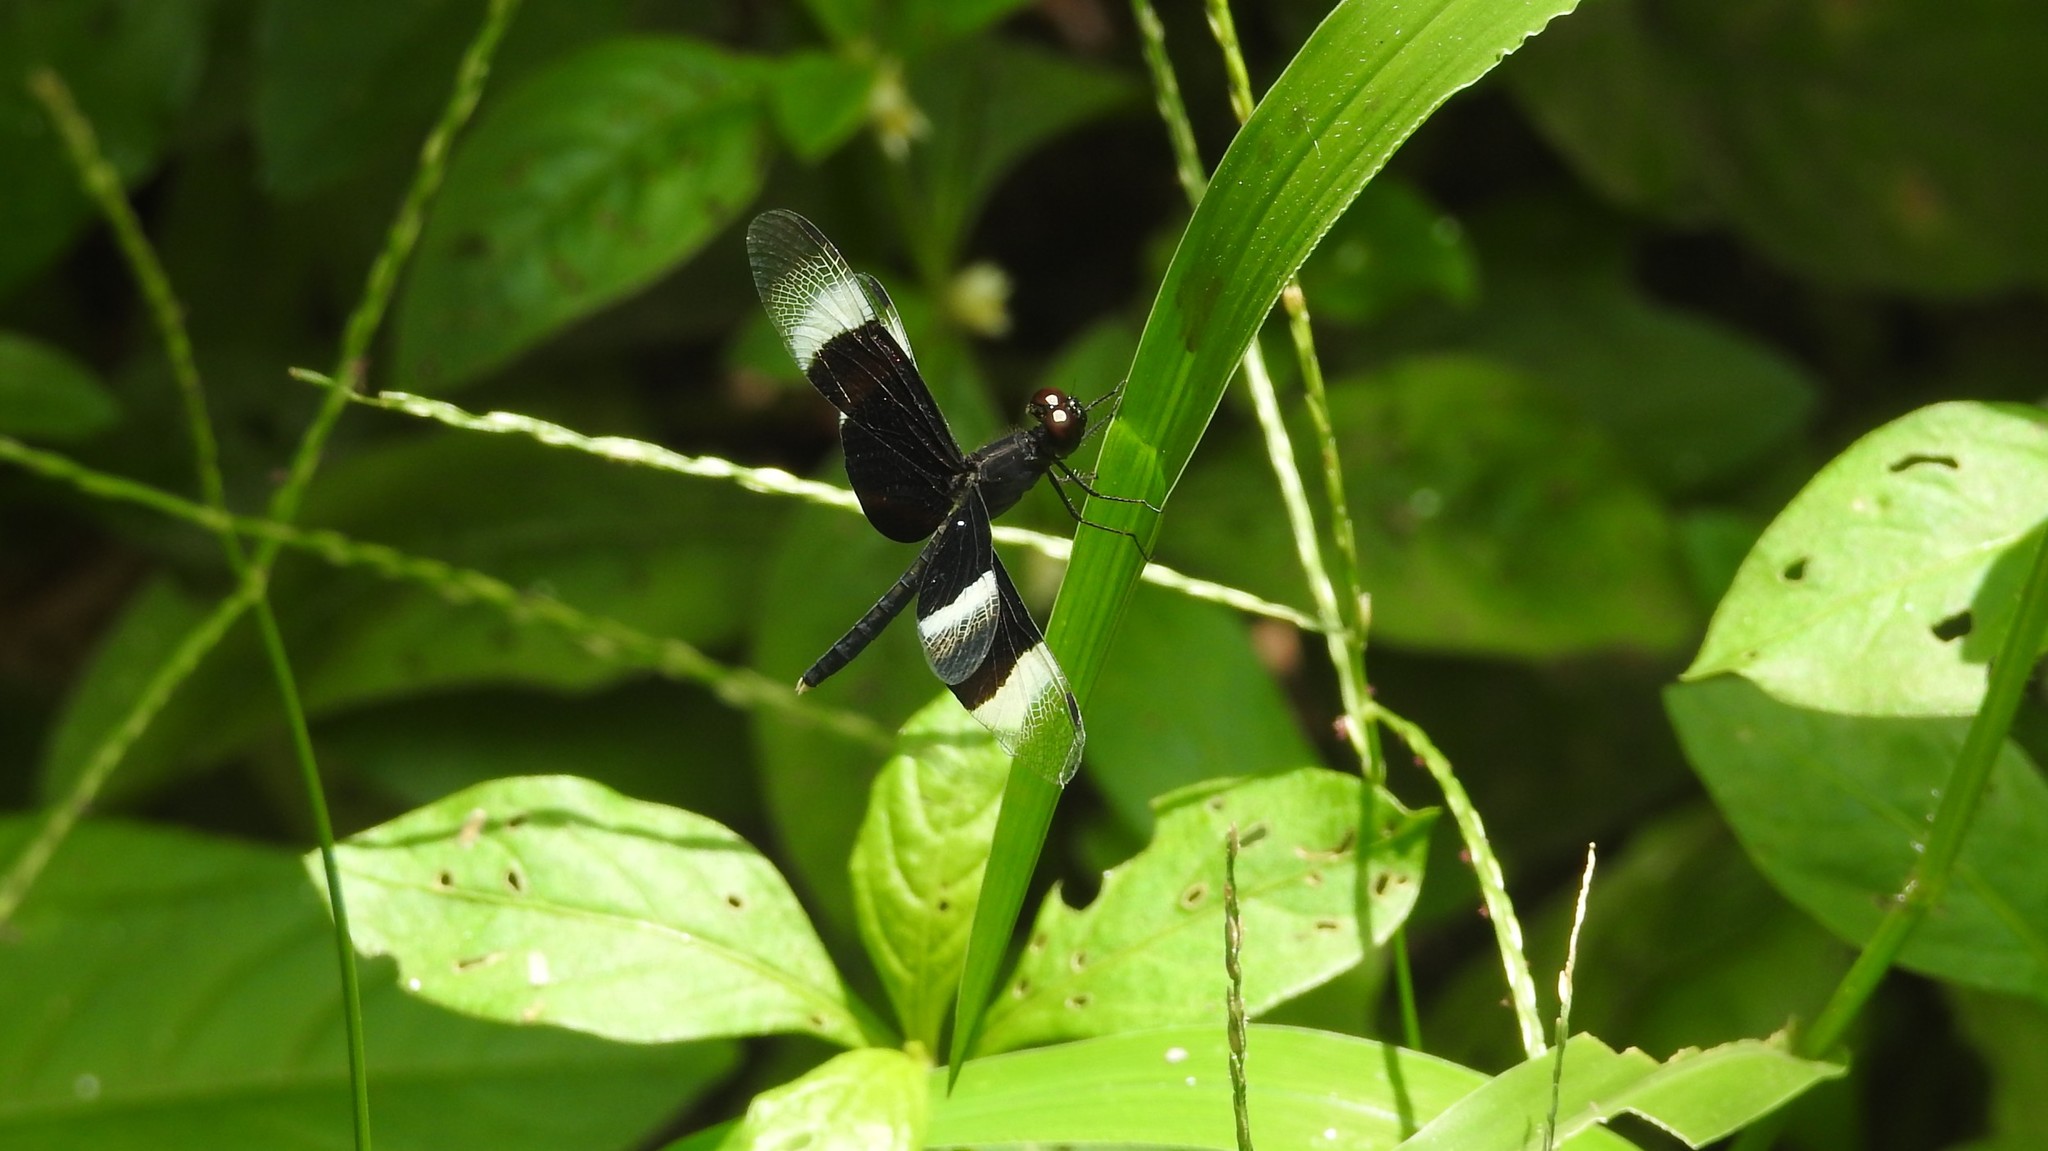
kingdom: Animalia
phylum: Arthropoda
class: Insecta
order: Odonata
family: Libellulidae
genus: Neurothemis
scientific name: Neurothemis tullia
